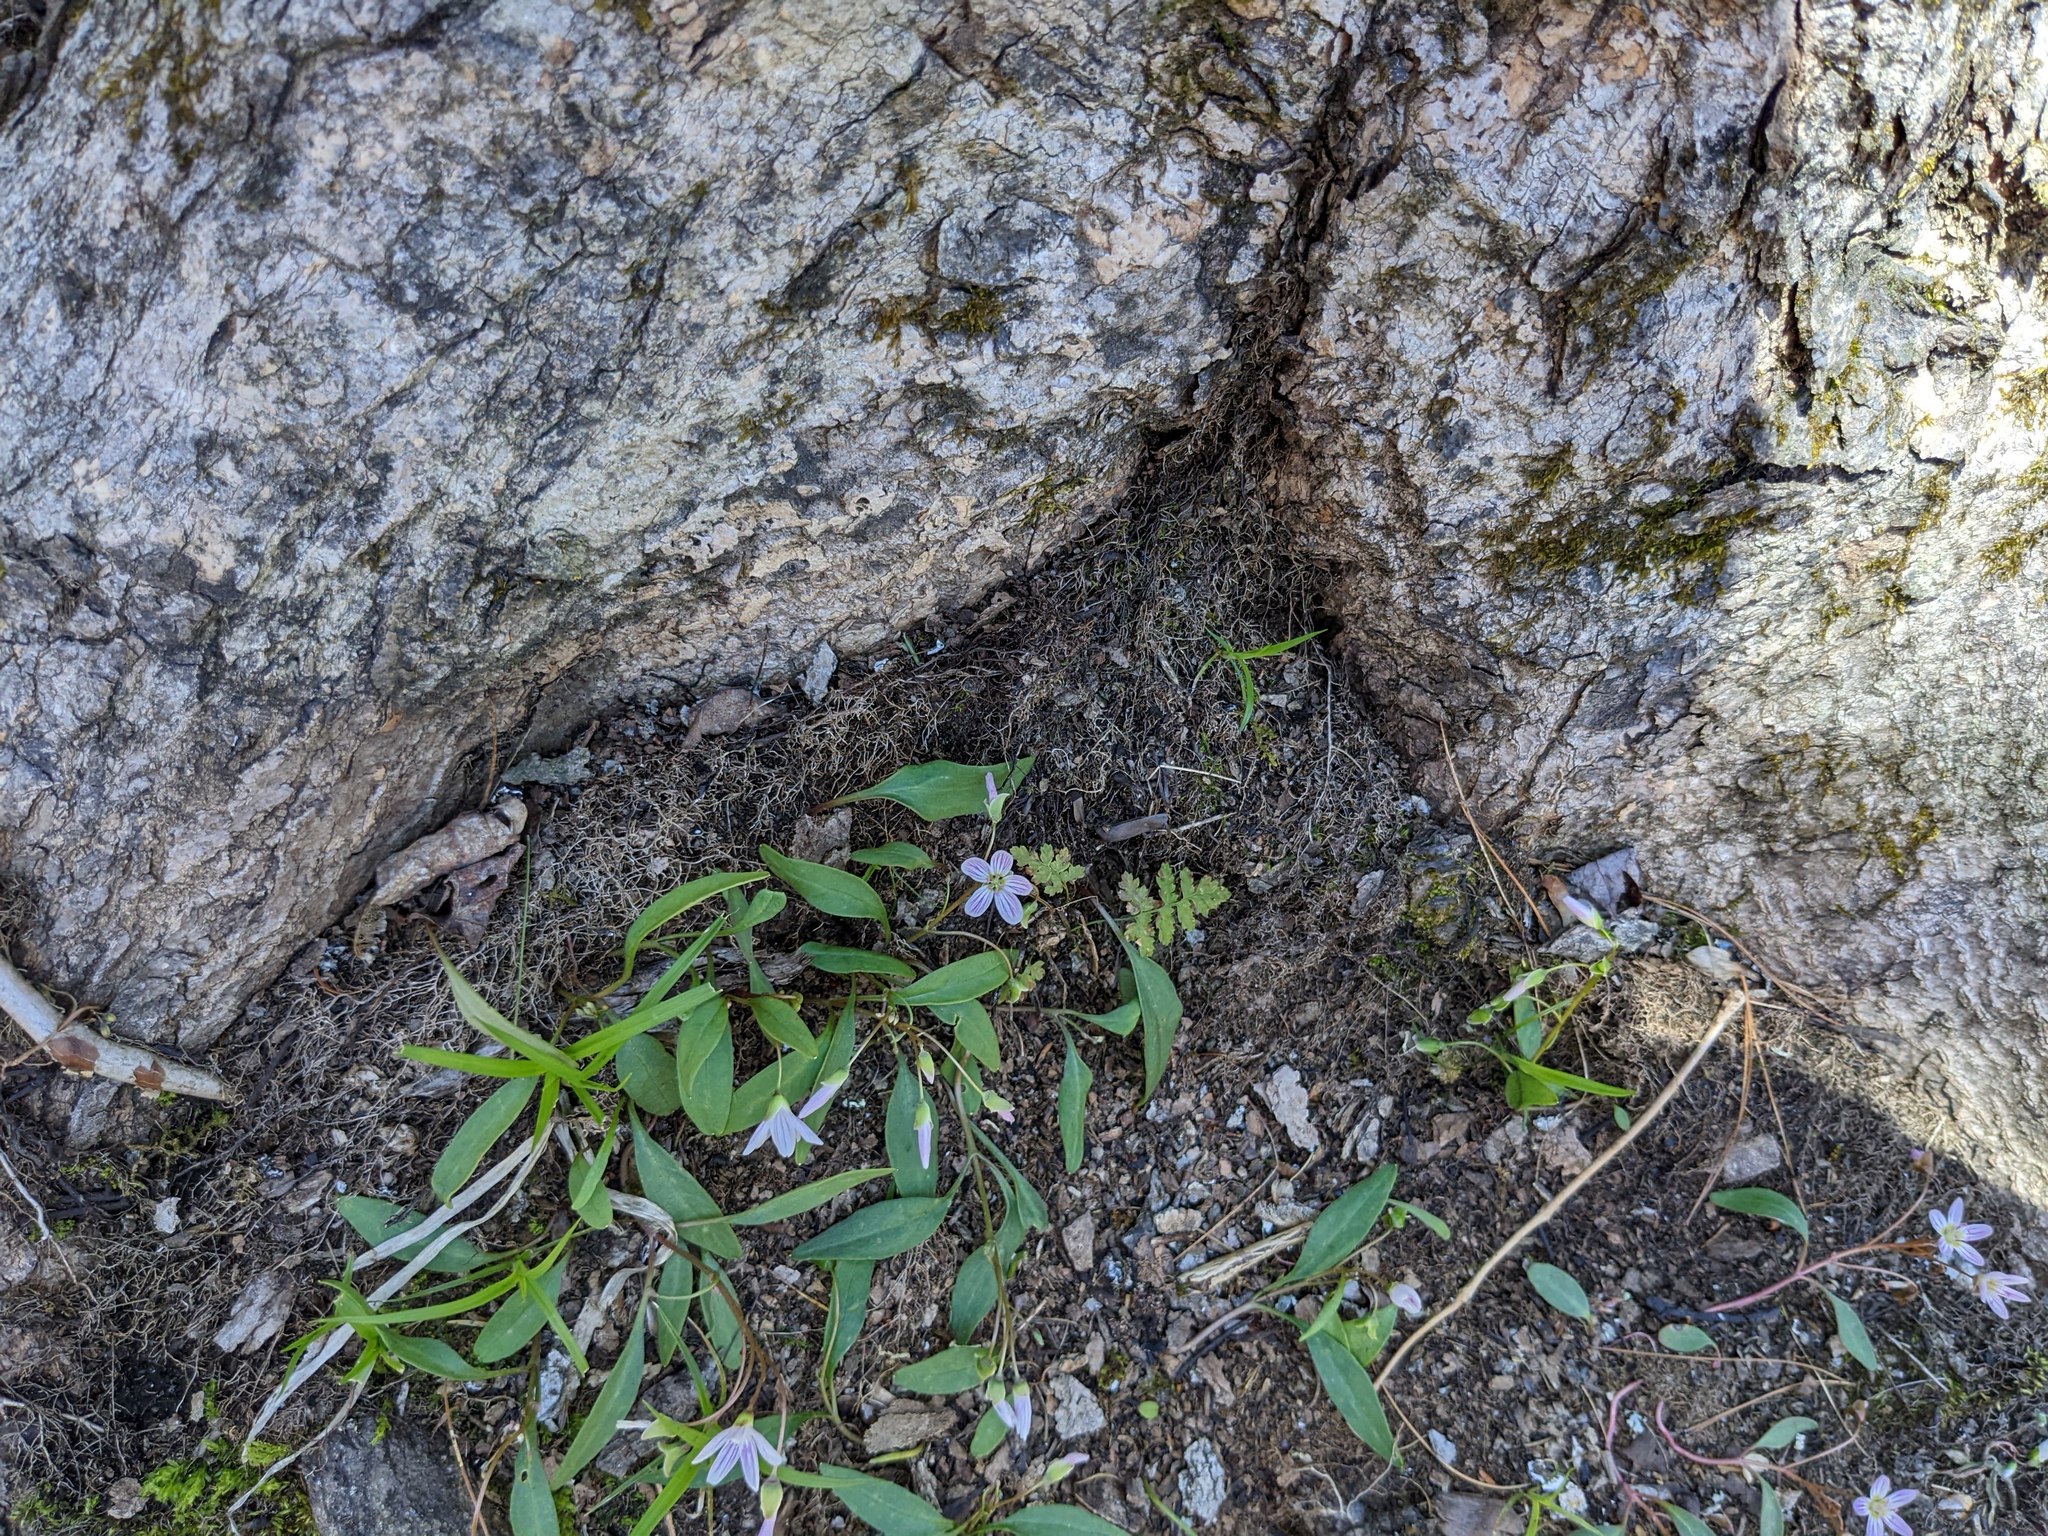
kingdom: Plantae
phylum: Tracheophyta
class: Magnoliopsida
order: Caryophyllales
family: Montiaceae
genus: Claytonia
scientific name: Claytonia caroliniana
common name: Carolina spring beauty
